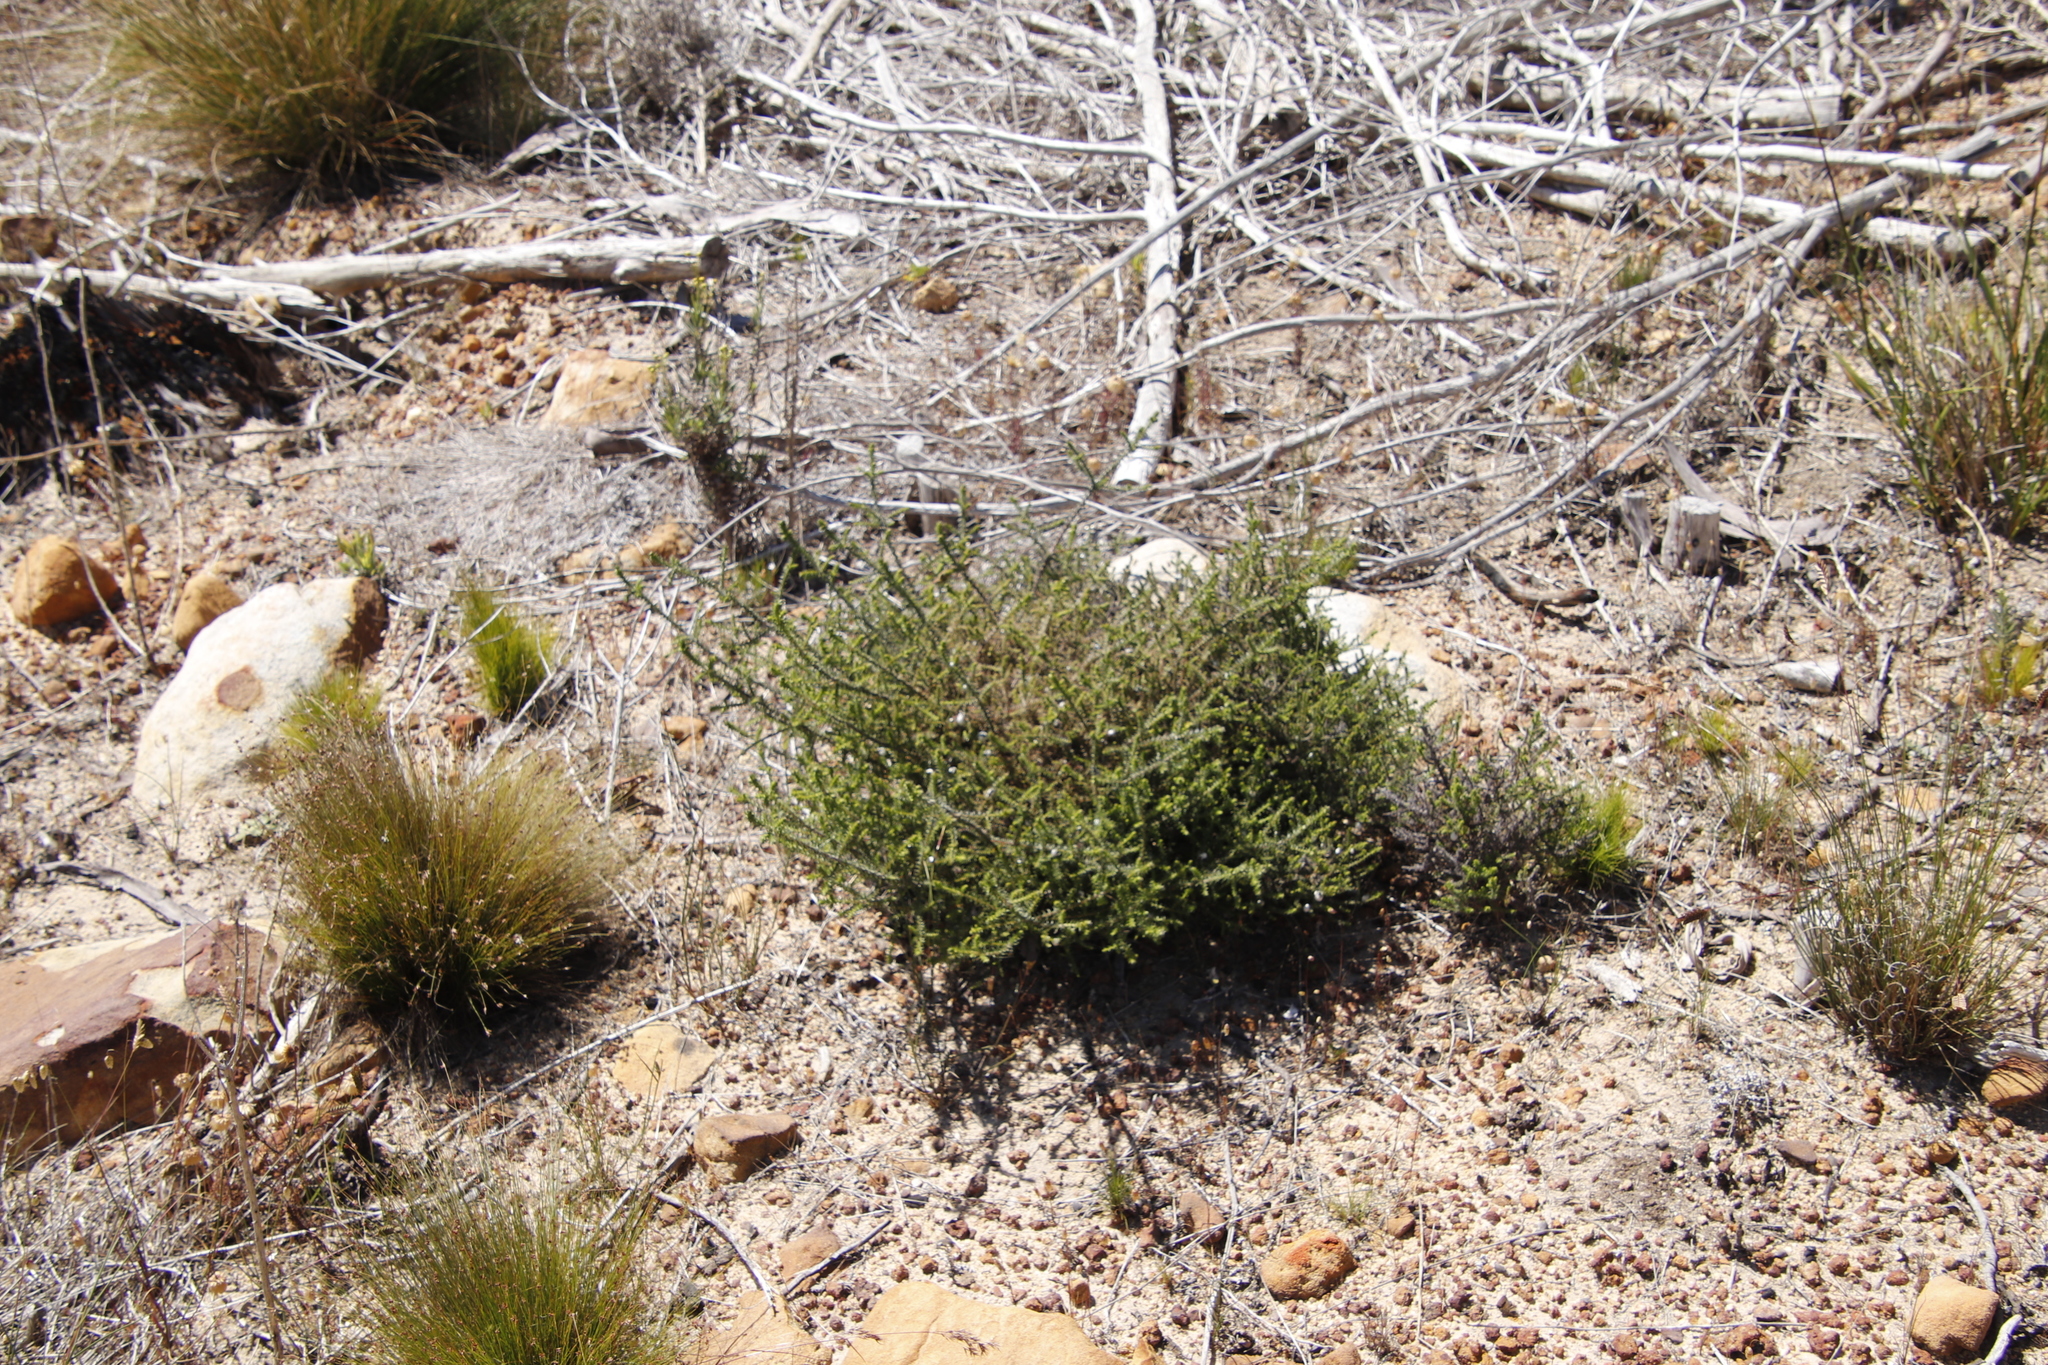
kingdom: Plantae
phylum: Tracheophyta
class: Magnoliopsida
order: Asterales
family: Asteraceae
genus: Seriphium
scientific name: Seriphium cinereum
